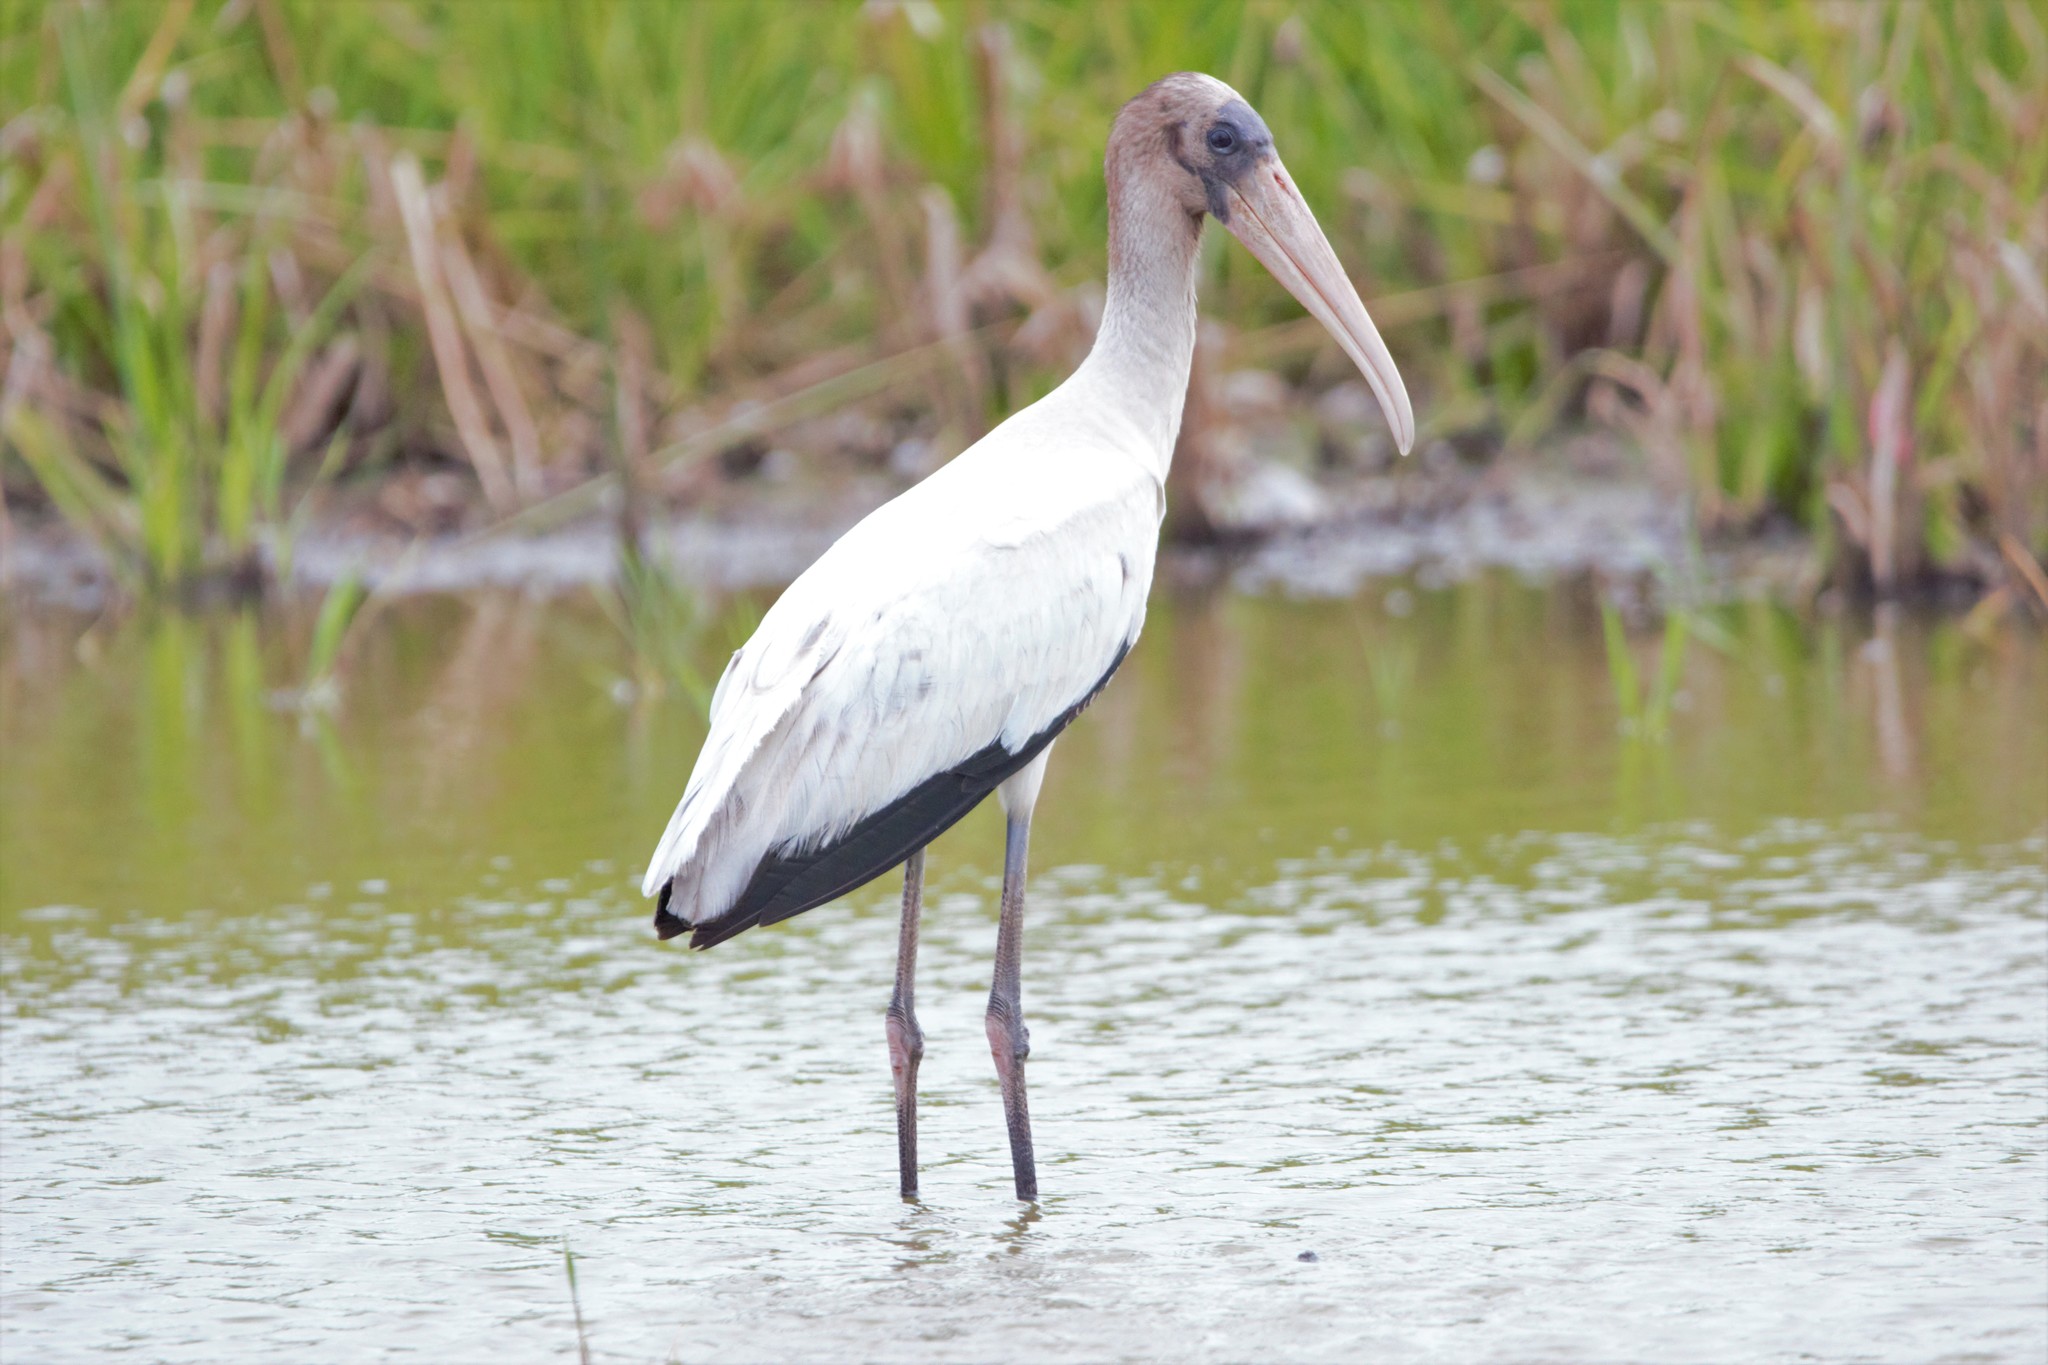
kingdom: Animalia
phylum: Chordata
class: Aves
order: Ciconiiformes
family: Ciconiidae
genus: Mycteria
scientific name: Mycteria americana
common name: Wood stork
